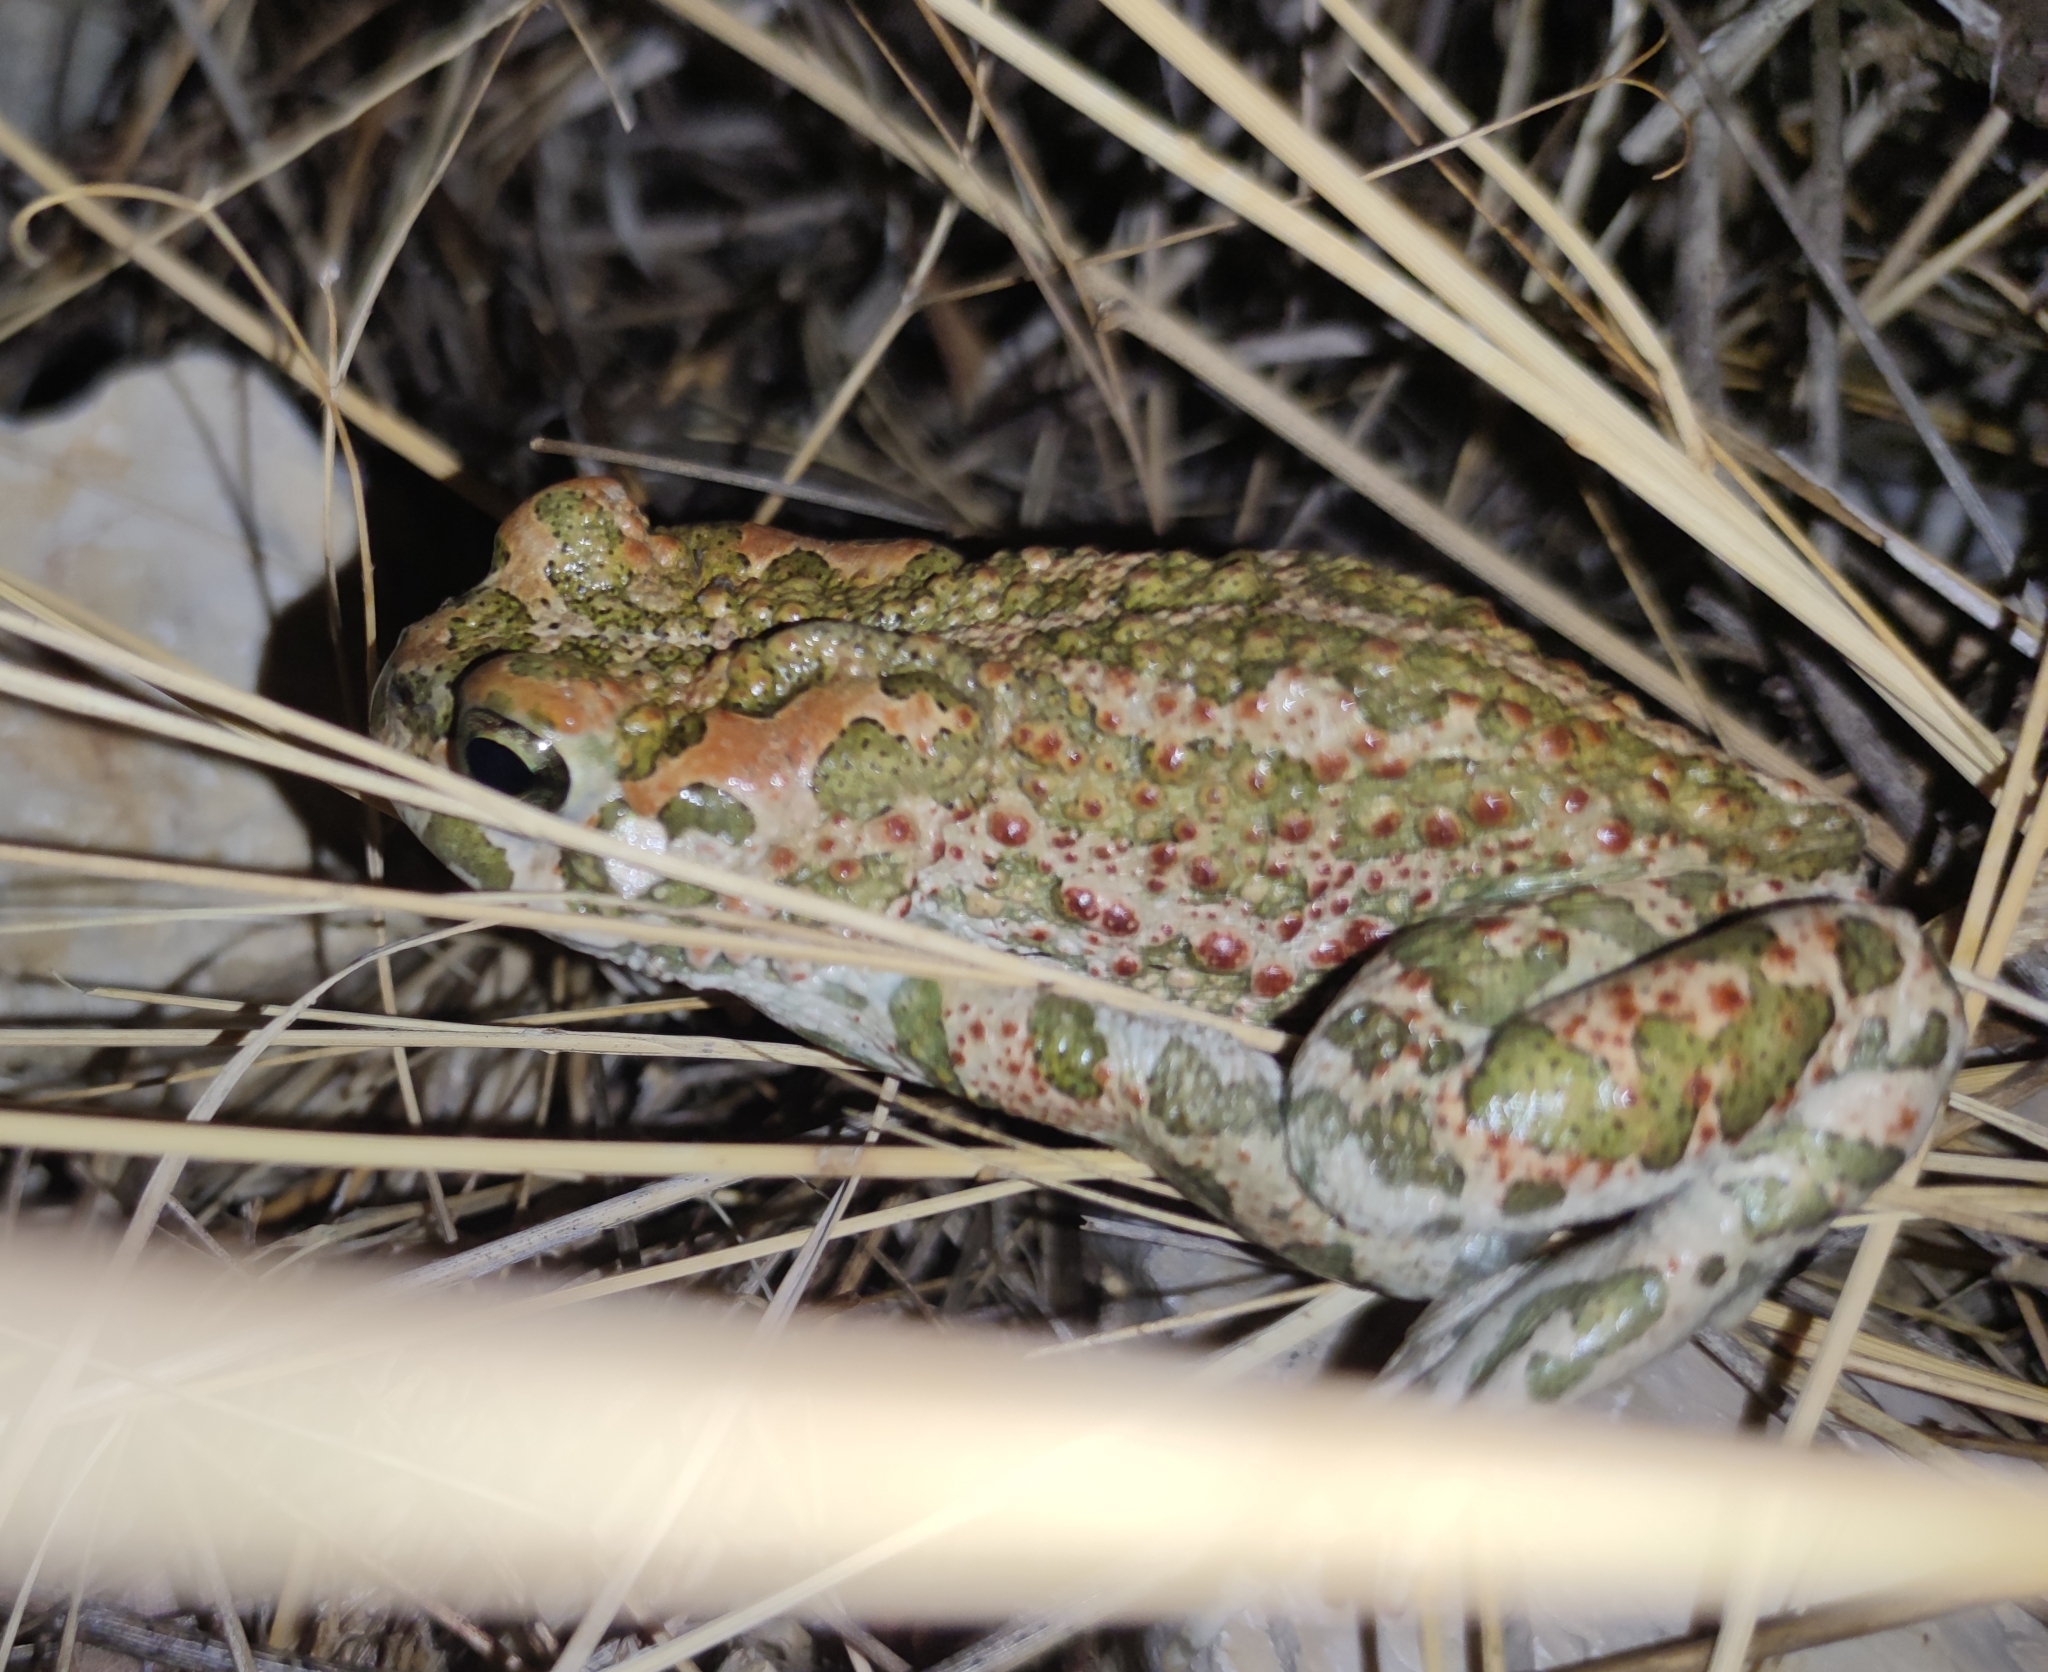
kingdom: Animalia
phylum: Chordata
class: Amphibia
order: Anura
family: Bufonidae
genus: Bufotes
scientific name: Bufotes viridis
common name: European green toad
